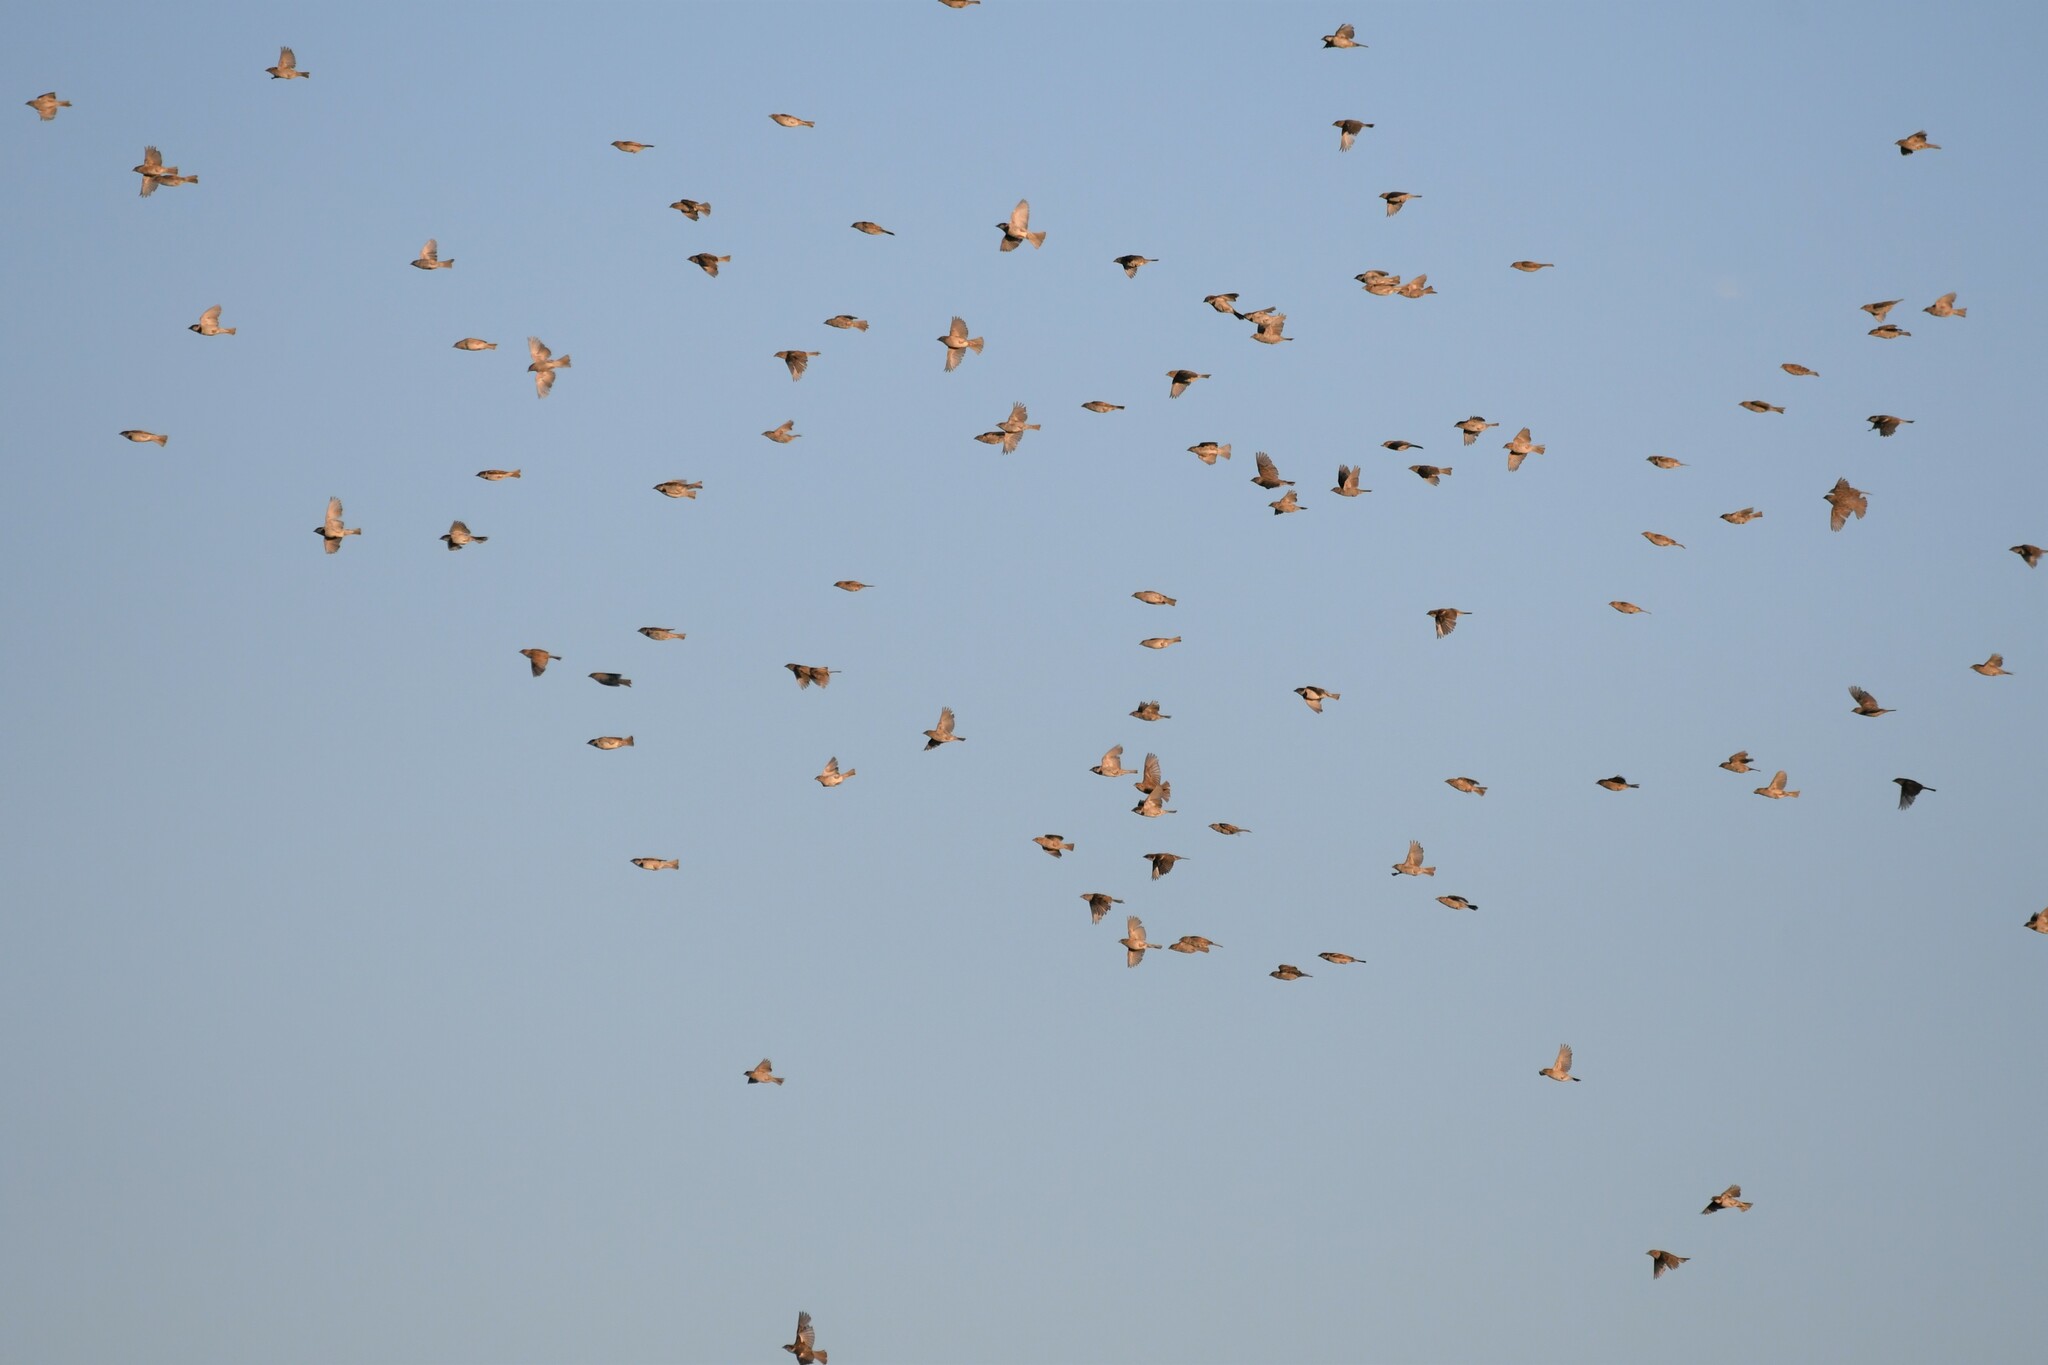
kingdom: Animalia
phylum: Chordata
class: Aves
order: Passeriformes
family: Passeridae
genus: Passer
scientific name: Passer domesticus
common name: House sparrow
